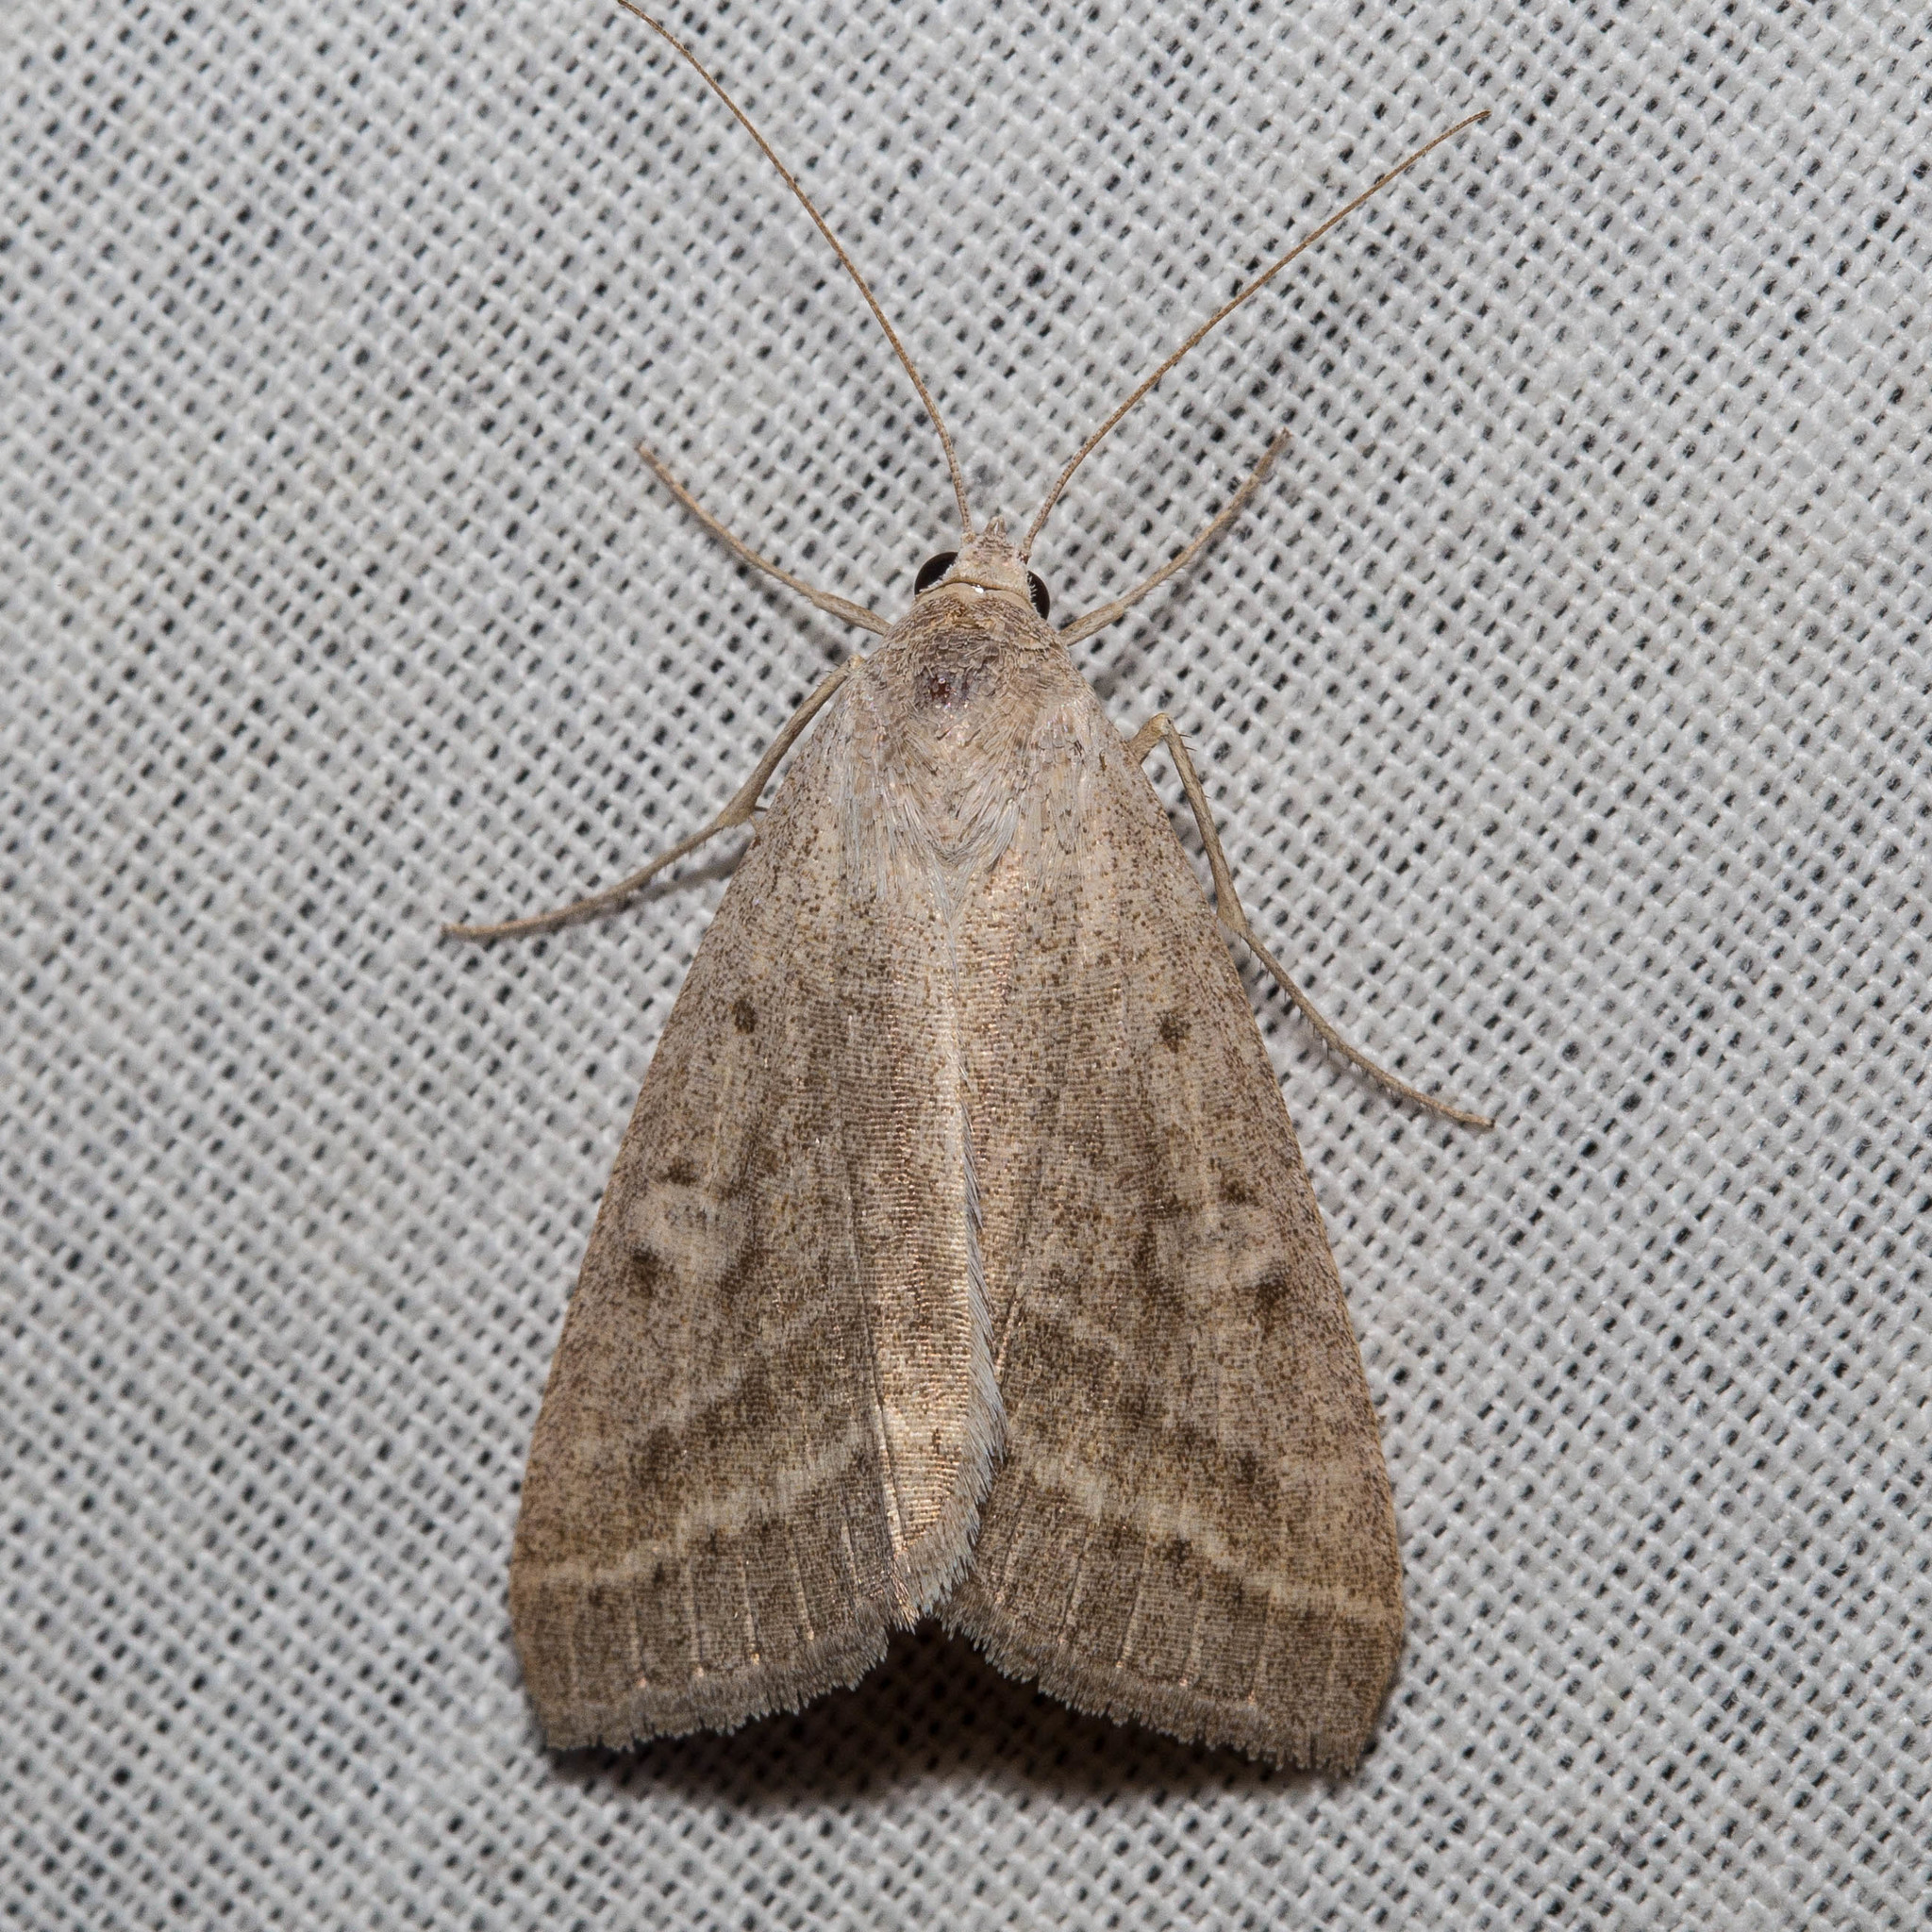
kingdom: Animalia
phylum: Arthropoda
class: Insecta
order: Lepidoptera
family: Erebidae
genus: Caenurgia
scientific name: Caenurgia togataria
